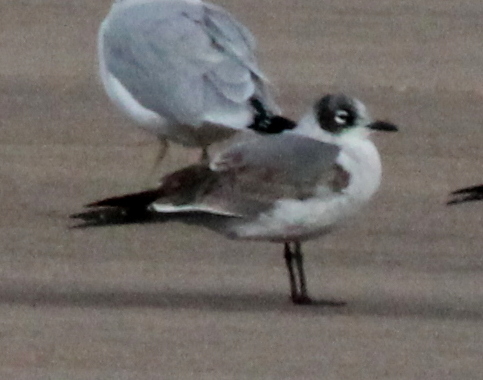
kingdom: Animalia
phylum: Chordata
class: Aves
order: Charadriiformes
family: Laridae
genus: Leucophaeus
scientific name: Leucophaeus pipixcan
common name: Franklin's gull
